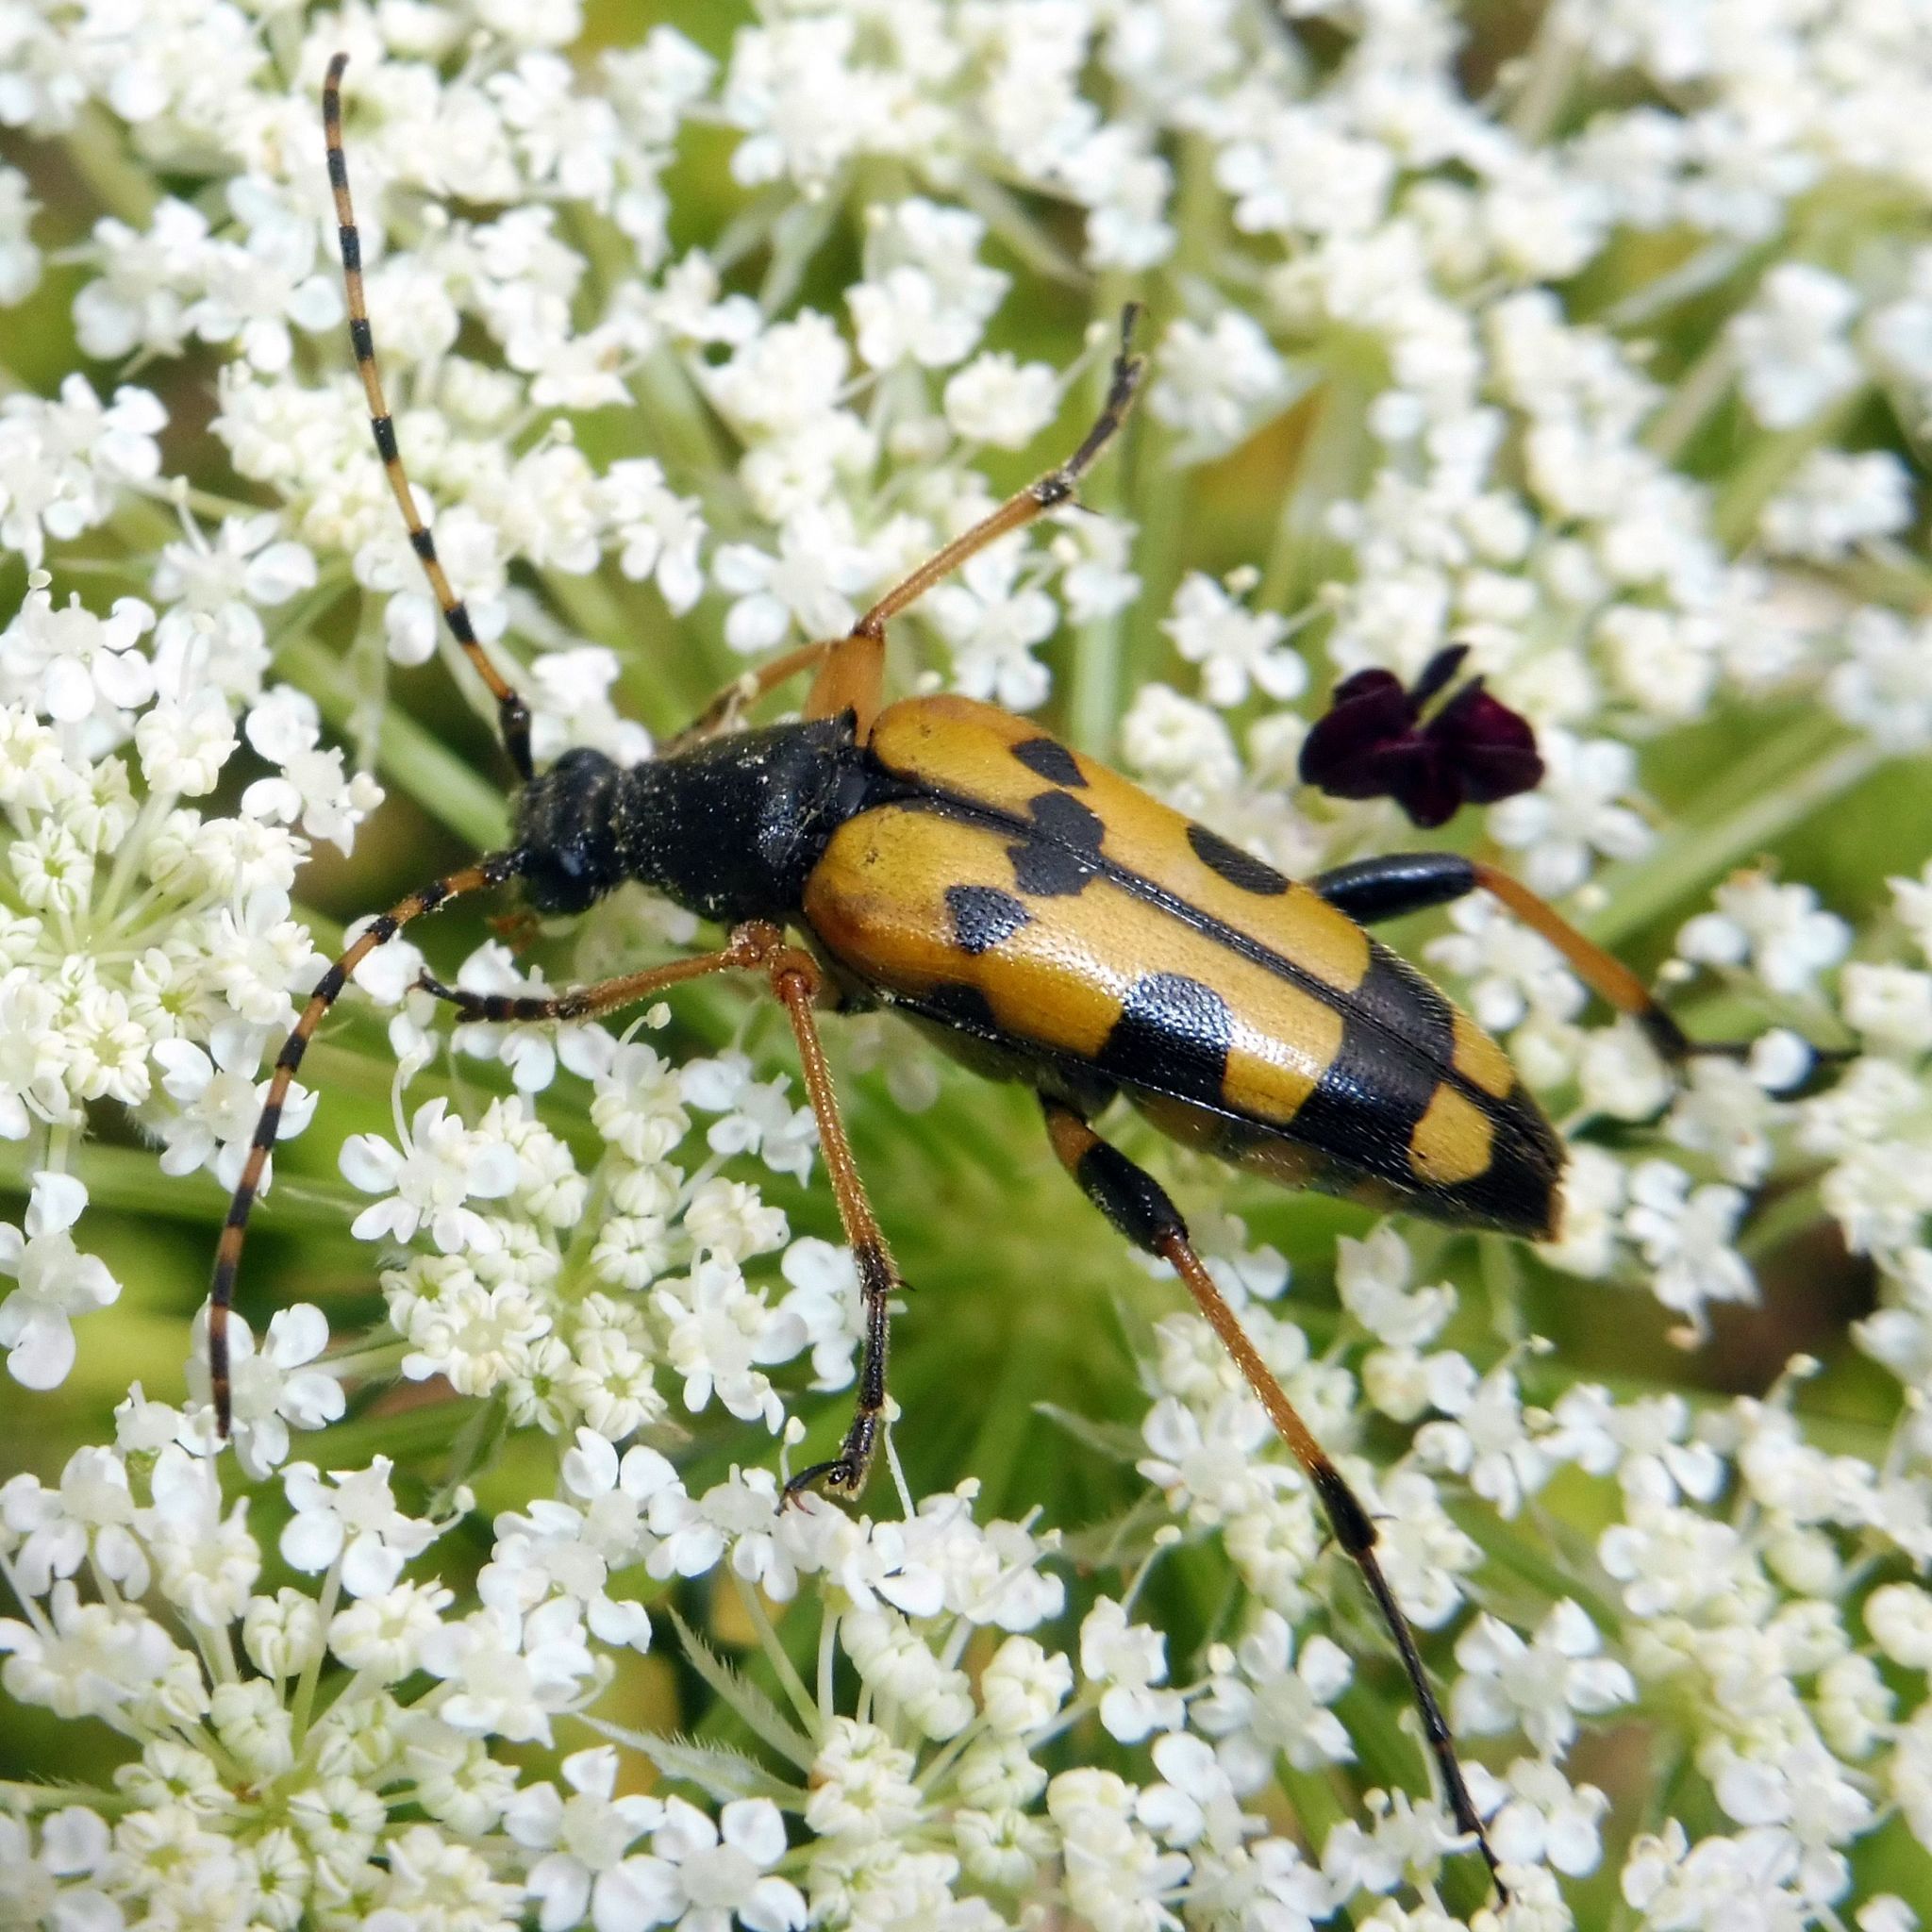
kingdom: Animalia
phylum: Arthropoda
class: Insecta
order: Coleoptera
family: Cerambycidae
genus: Rutpela
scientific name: Rutpela maculata
